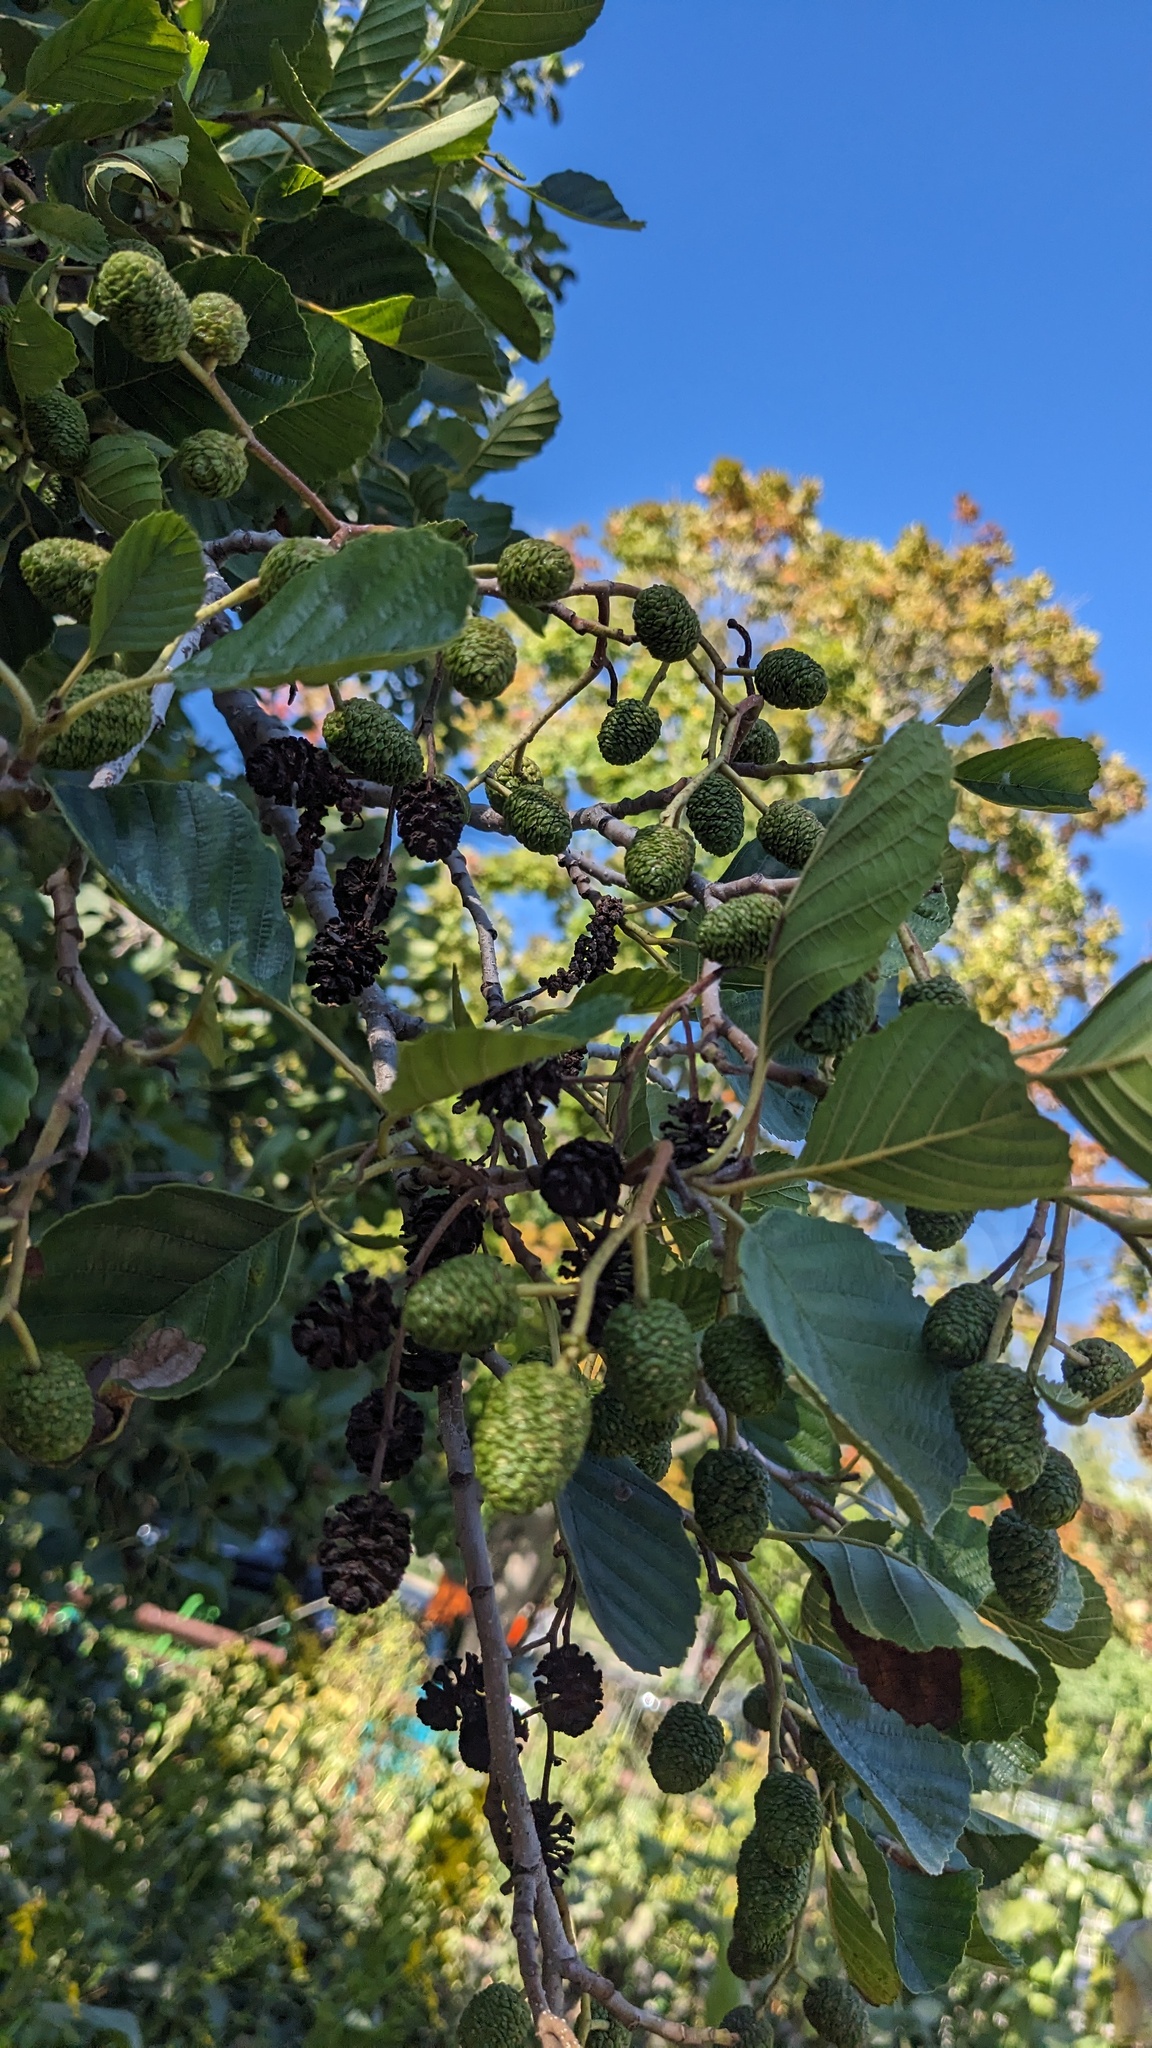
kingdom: Plantae
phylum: Tracheophyta
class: Magnoliopsida
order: Fagales
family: Betulaceae
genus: Alnus
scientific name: Alnus glutinosa
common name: Black alder
